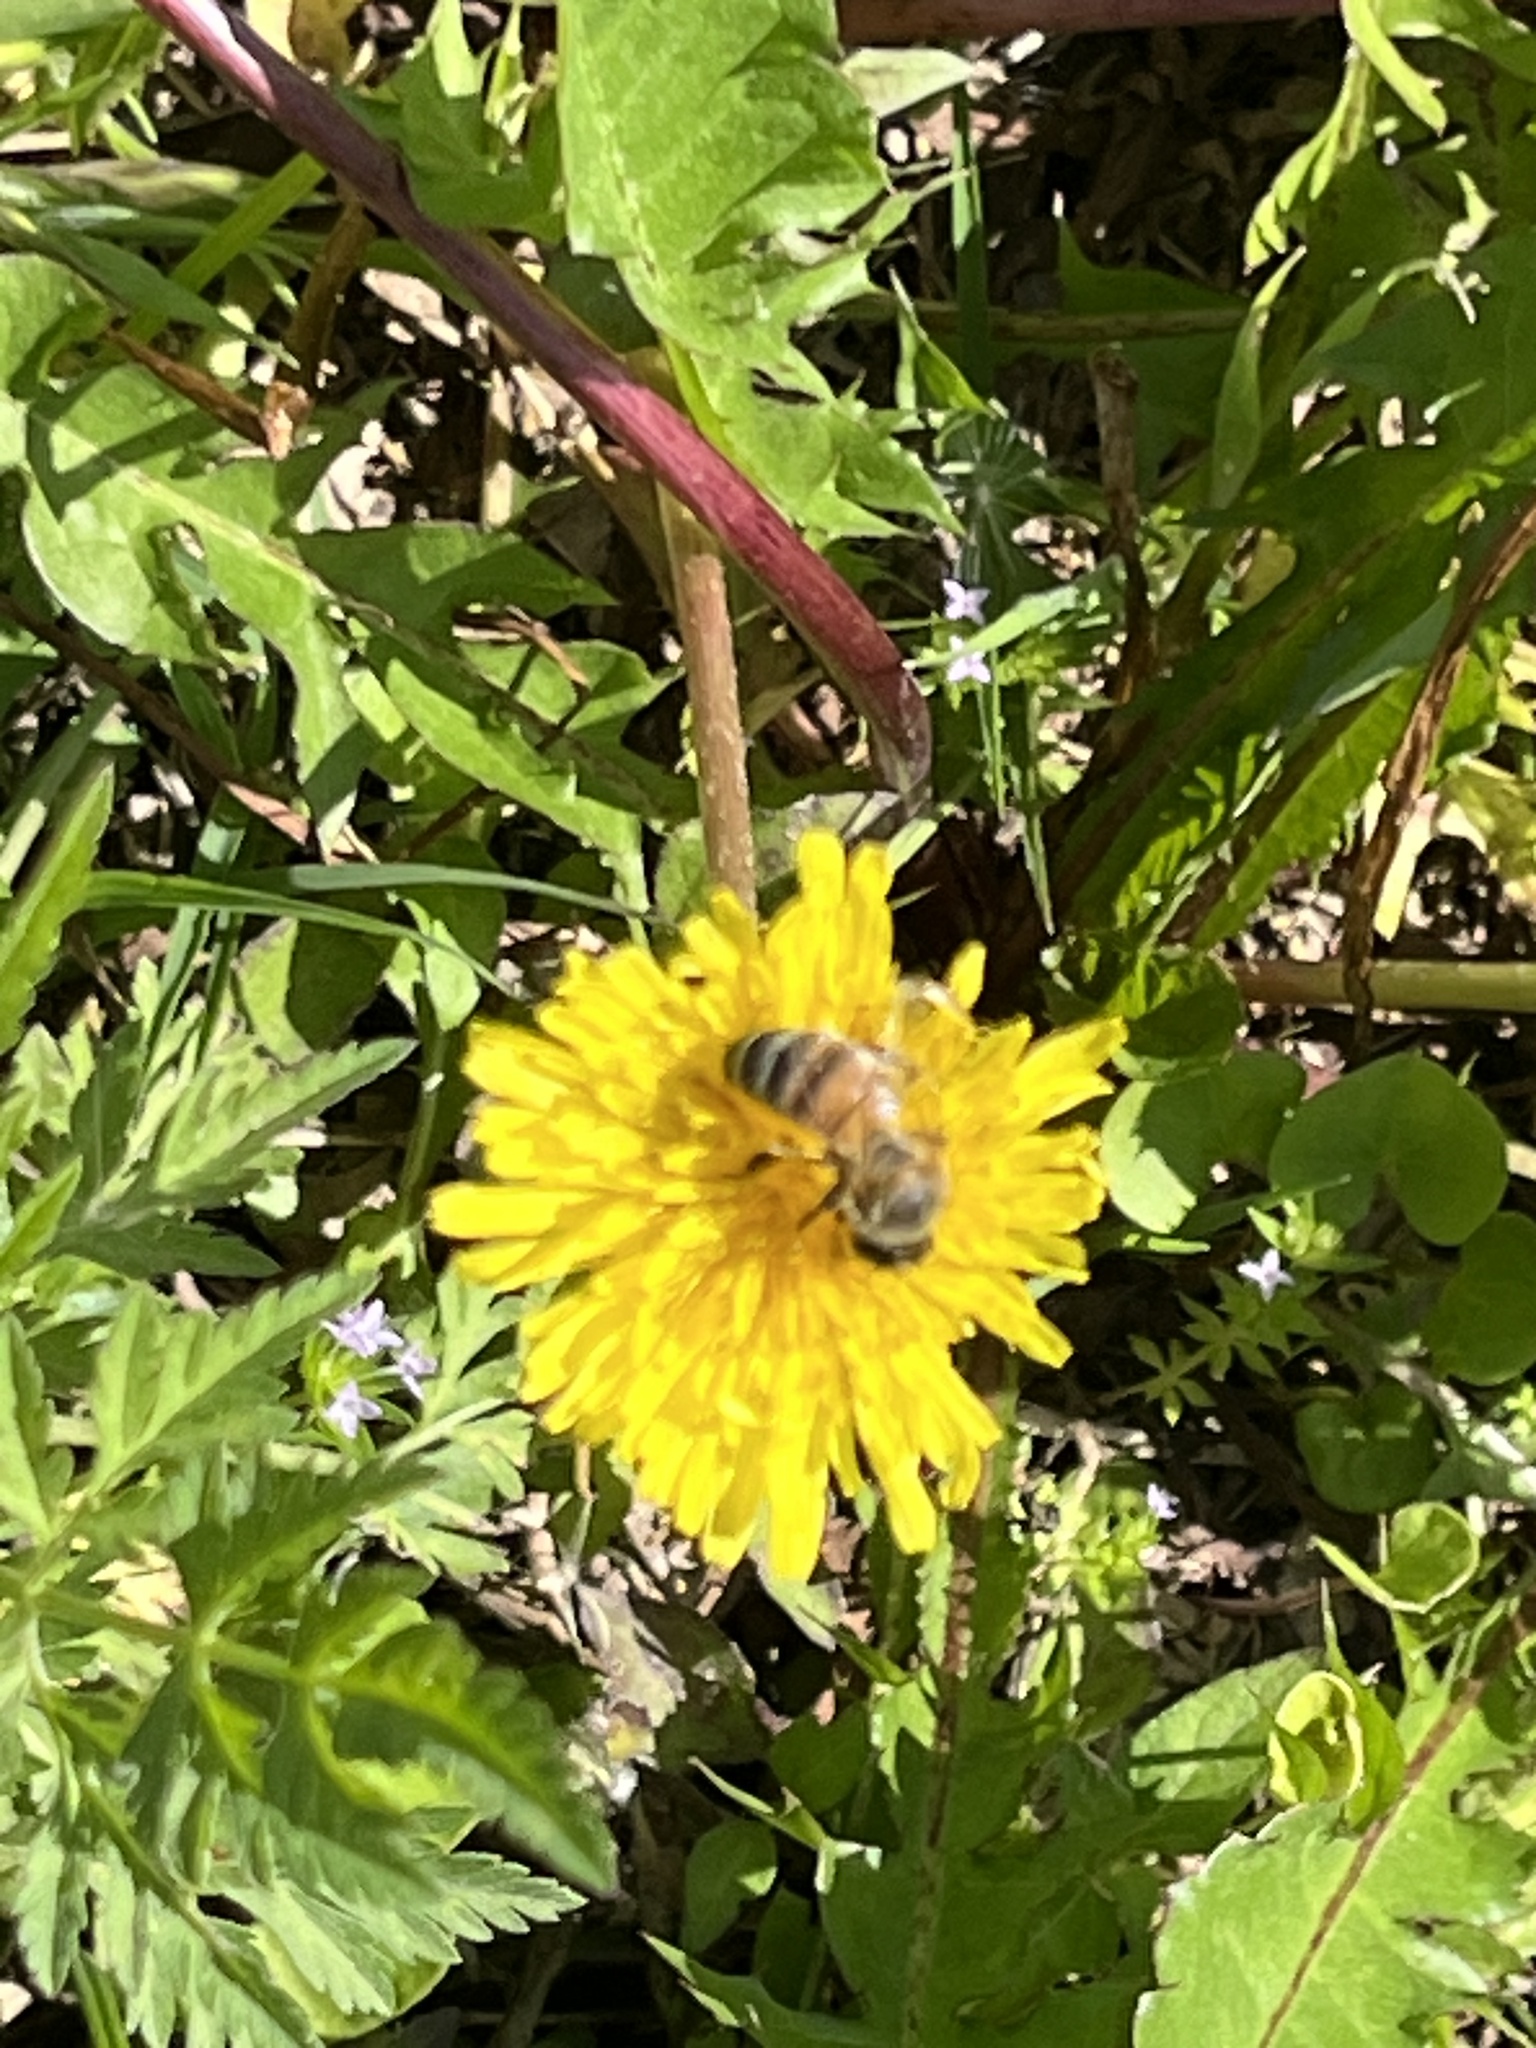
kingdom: Animalia
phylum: Arthropoda
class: Insecta
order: Hymenoptera
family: Apidae
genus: Apis
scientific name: Apis mellifera
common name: Honey bee
